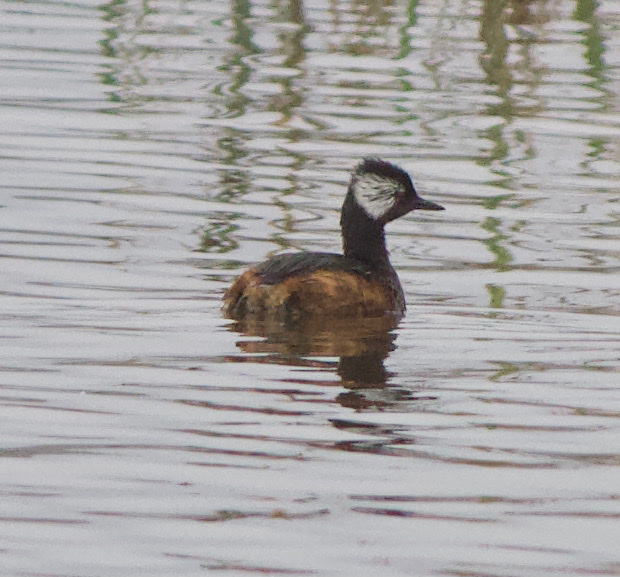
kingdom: Animalia
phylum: Chordata
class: Aves
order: Podicipediformes
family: Podicipedidae
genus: Rollandia
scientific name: Rollandia rolland
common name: White-tufted grebe
